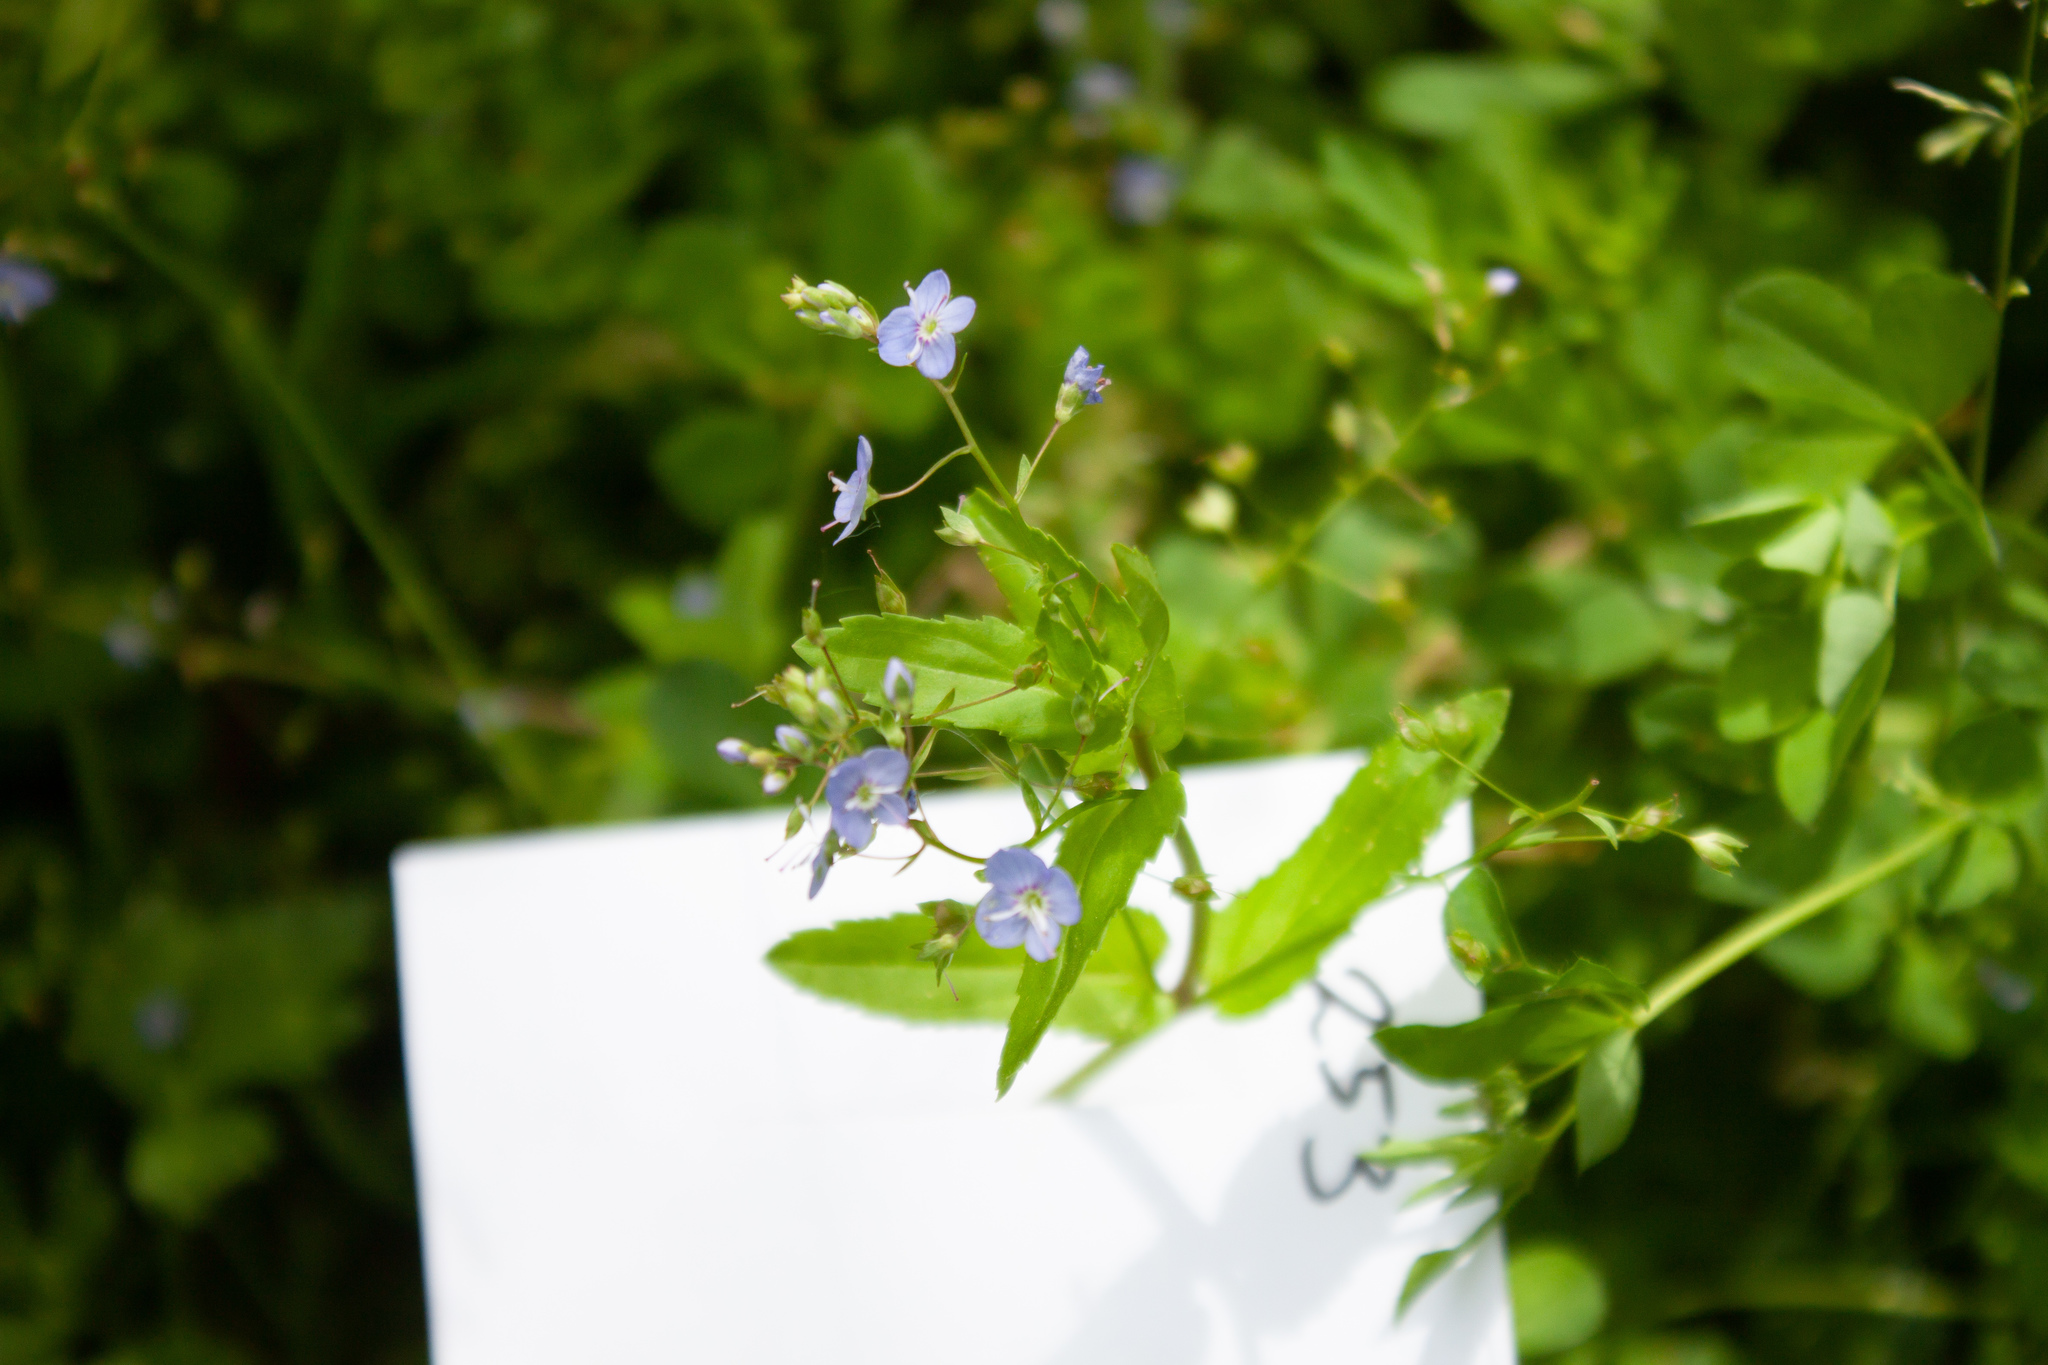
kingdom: Plantae
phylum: Tracheophyta
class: Magnoliopsida
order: Lamiales
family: Plantaginaceae
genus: Veronica
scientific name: Veronica americana
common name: American brooklime
